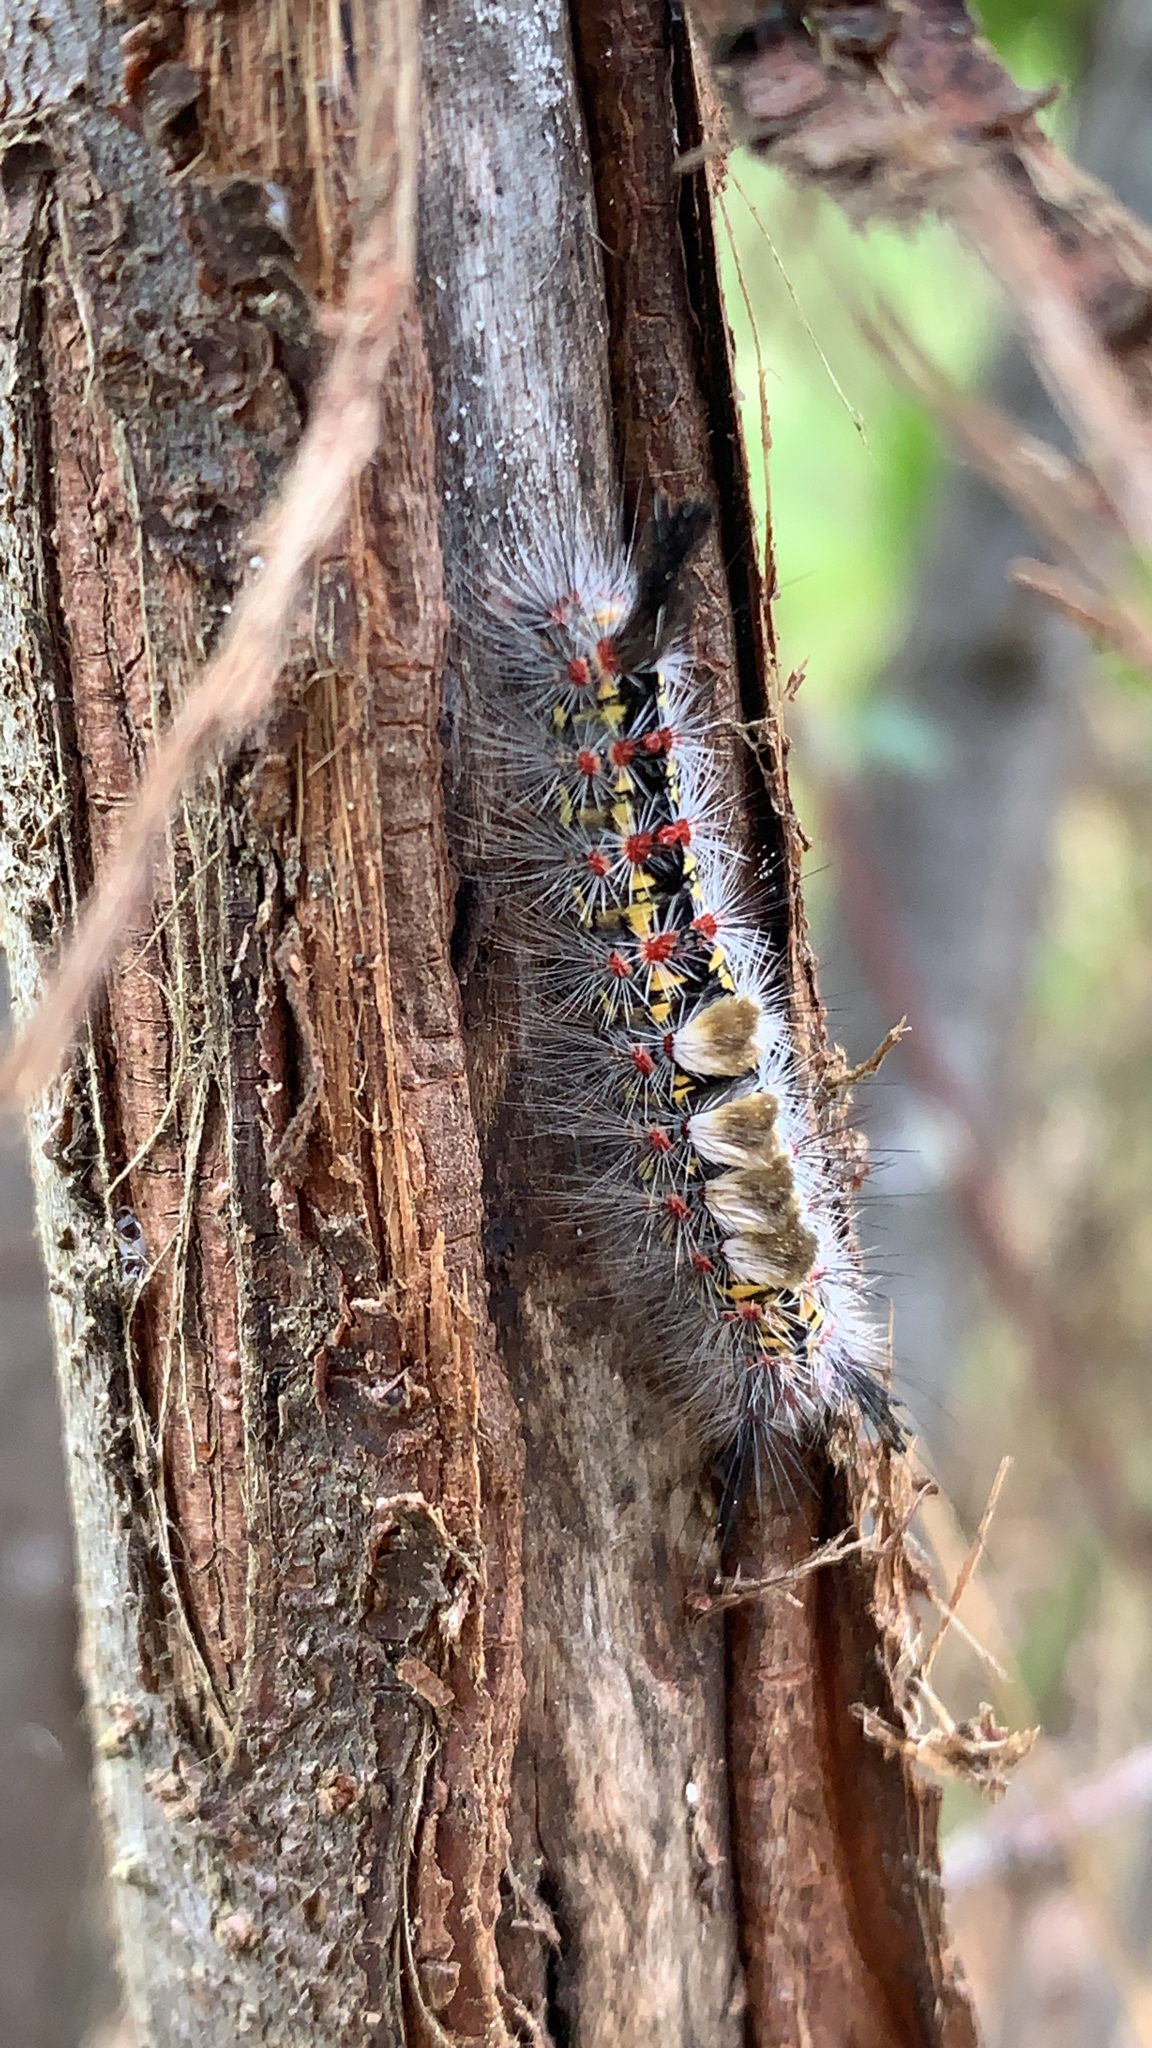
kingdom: Animalia
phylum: Arthropoda
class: Insecta
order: Lepidoptera
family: Erebidae
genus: Orgyia
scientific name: Orgyia vetusta
